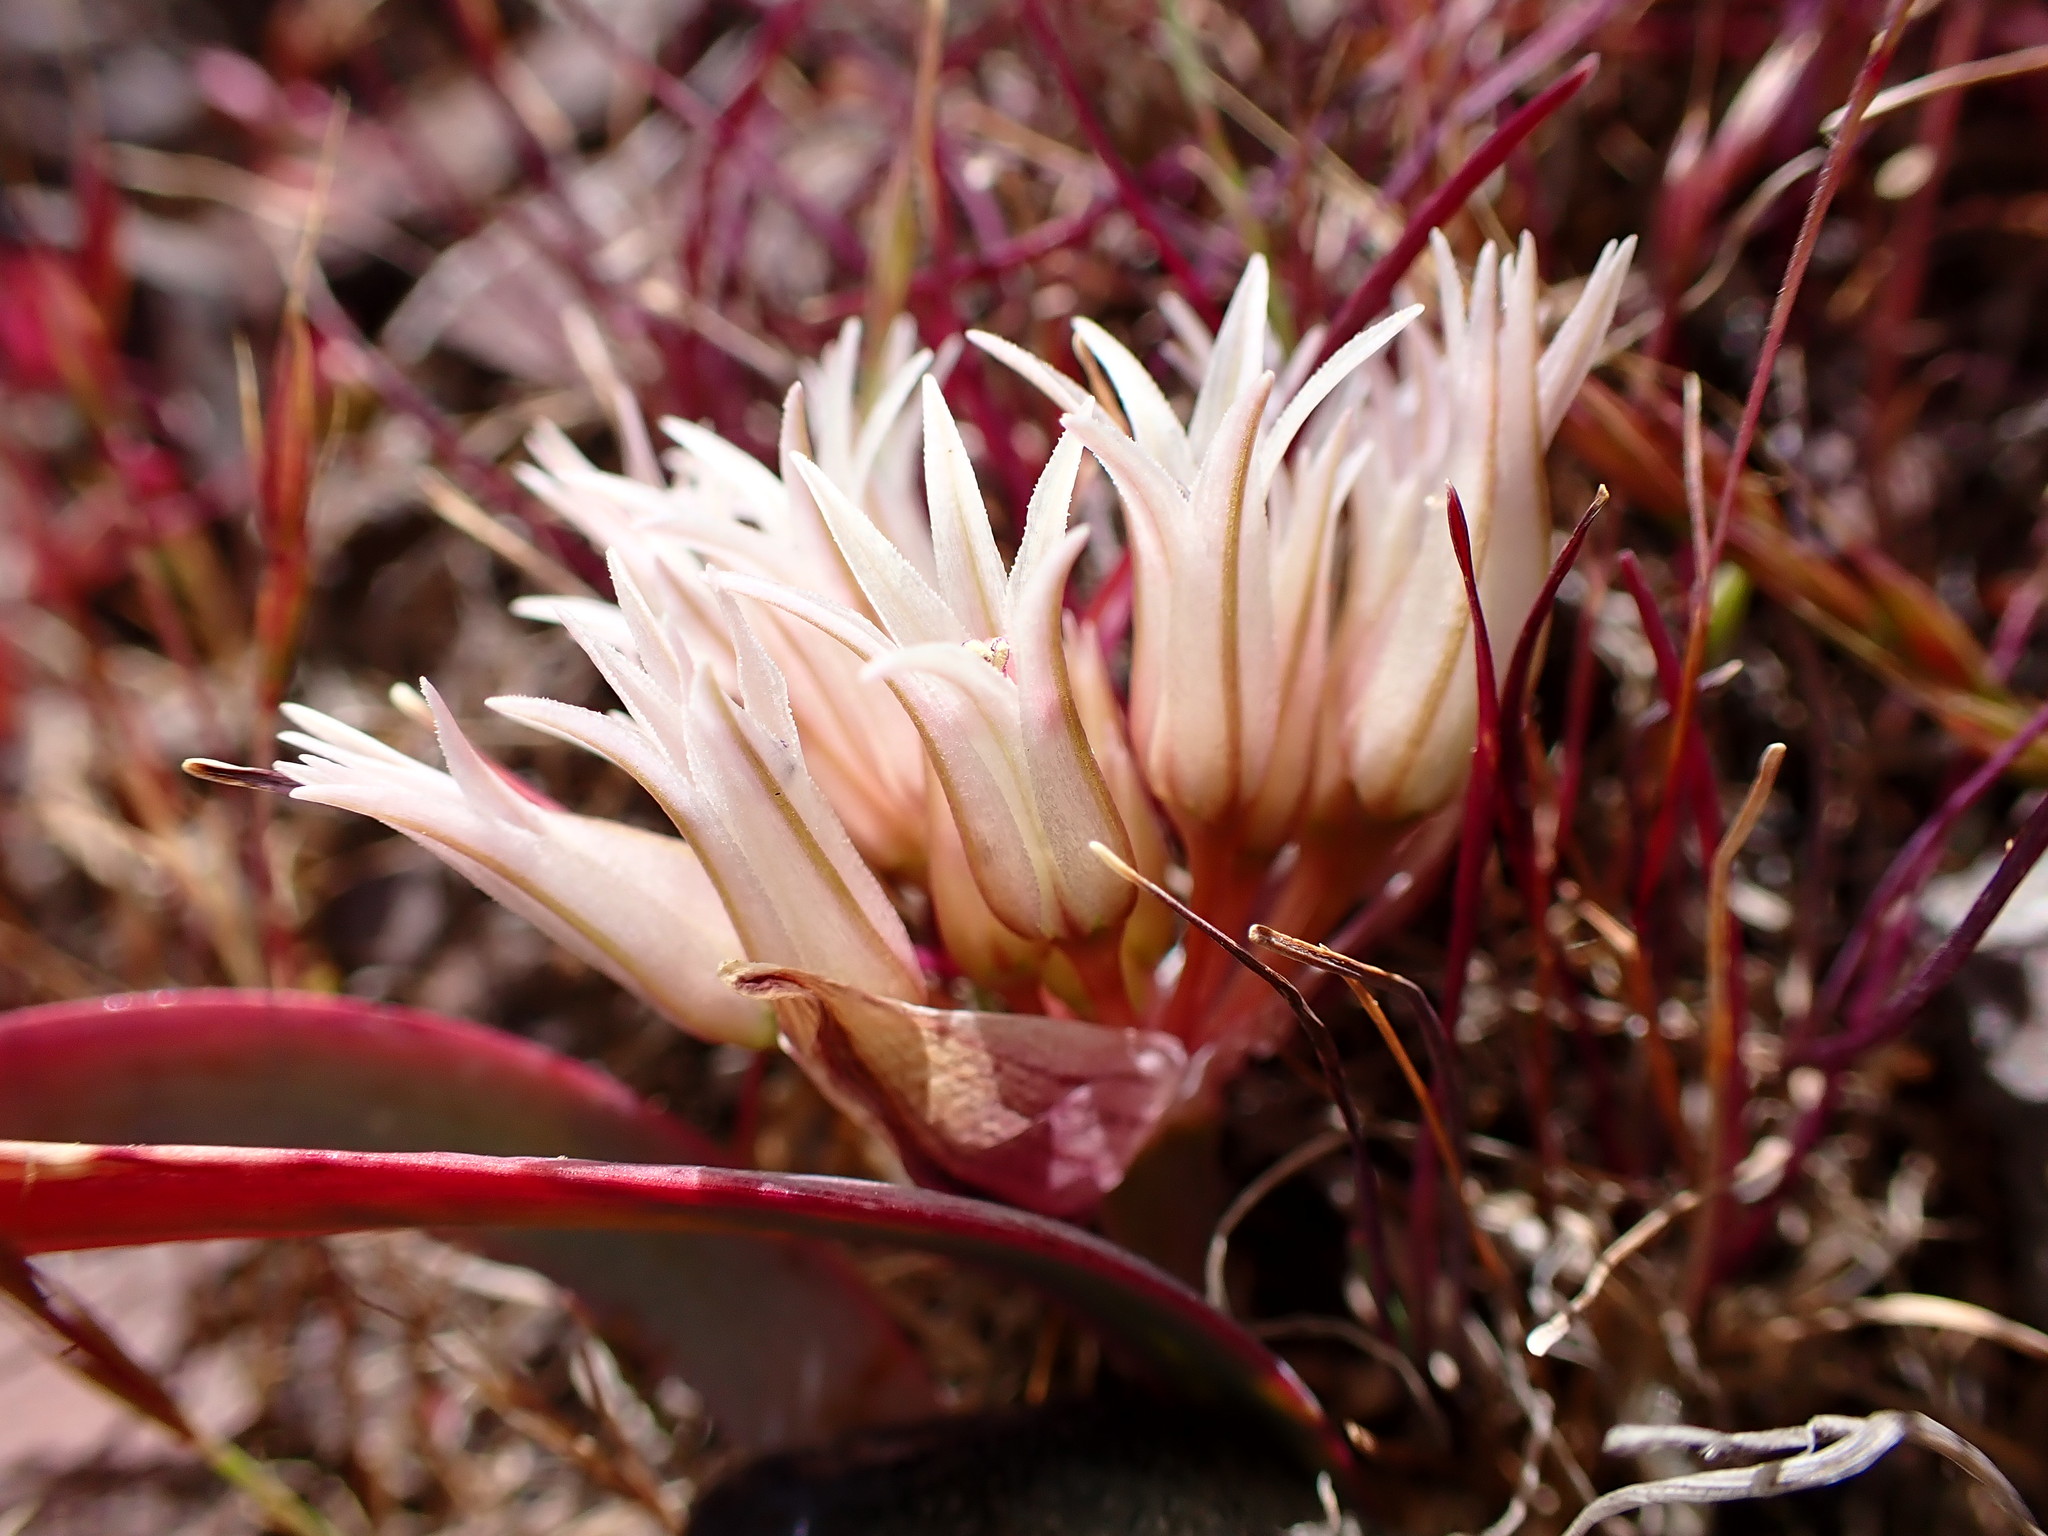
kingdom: Plantae
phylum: Tracheophyta
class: Liliopsida
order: Asparagales
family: Amaryllidaceae
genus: Allium
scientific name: Allium falcifolium
